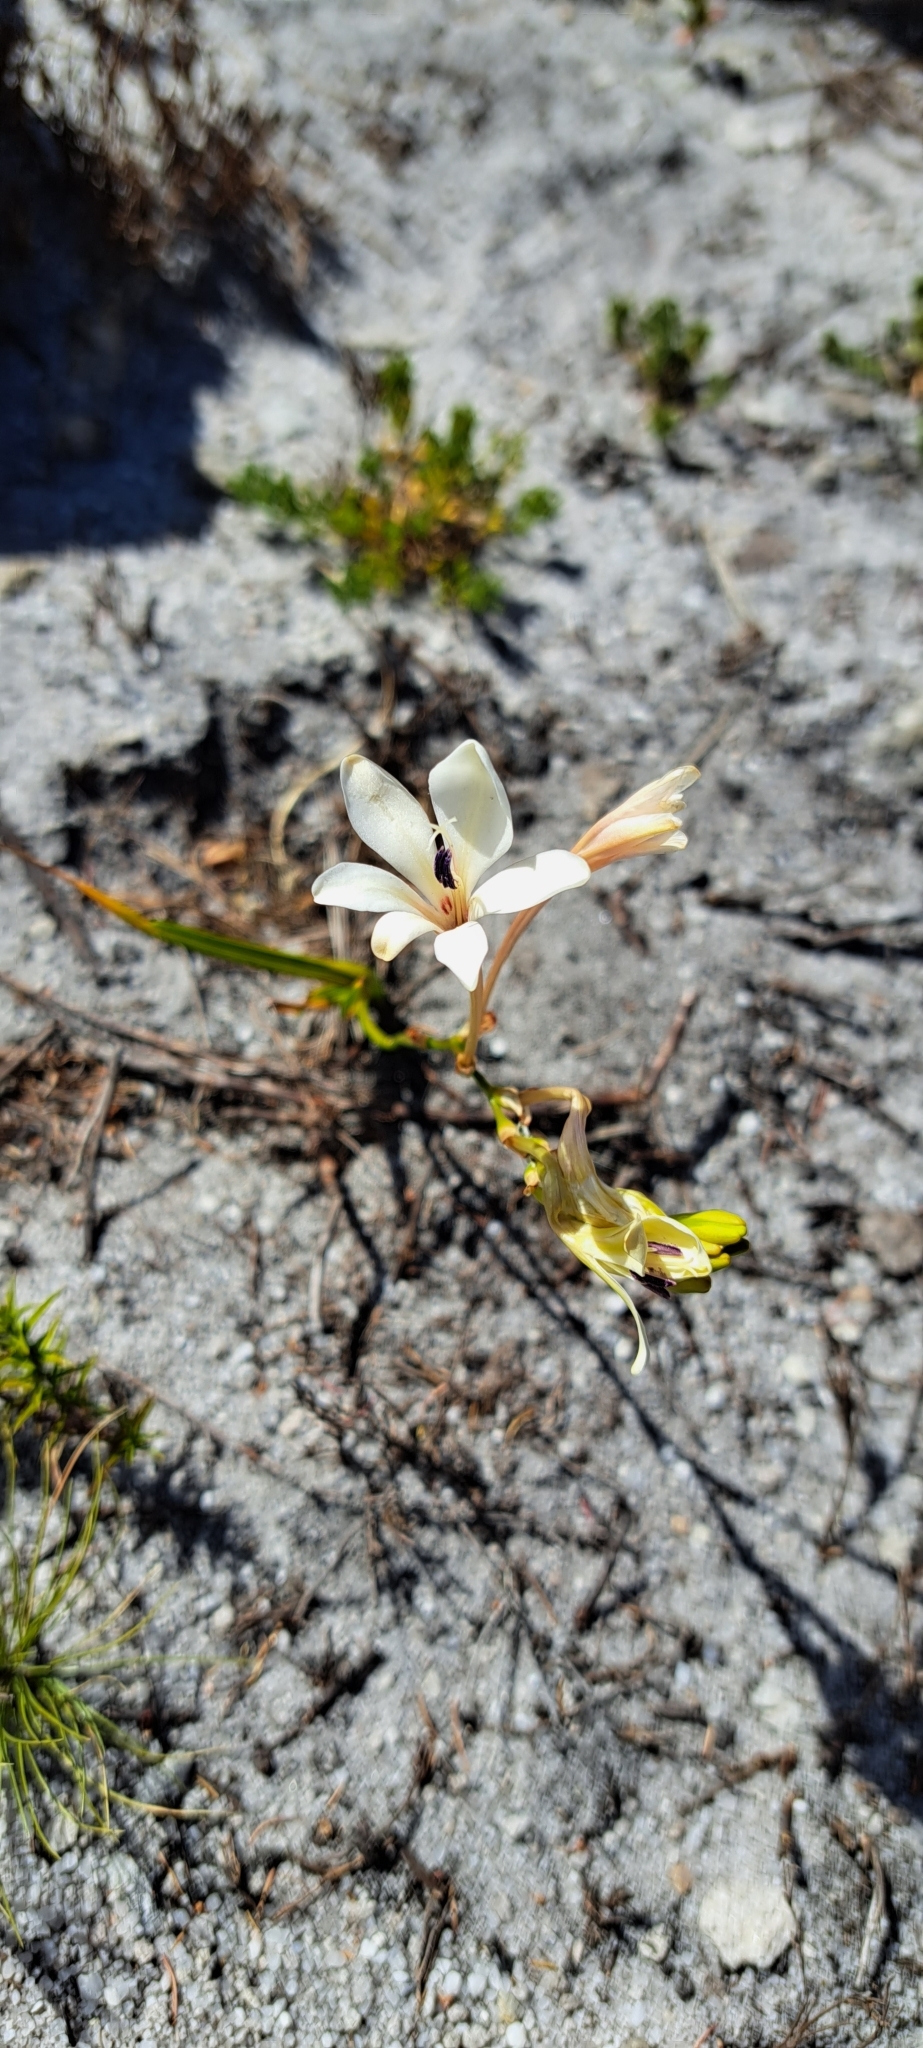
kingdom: Plantae
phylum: Tracheophyta
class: Liliopsida
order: Asparagales
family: Iridaceae
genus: Tritonia
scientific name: Tritonia cooperi
